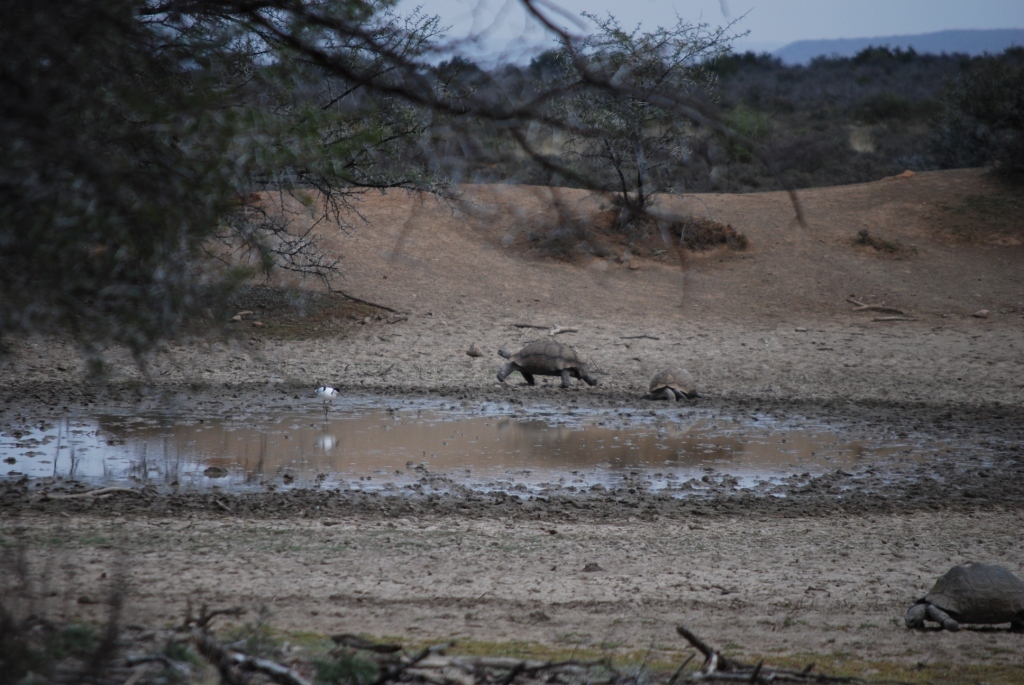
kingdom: Animalia
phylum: Chordata
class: Aves
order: Charadriiformes
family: Recurvirostridae
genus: Recurvirostra
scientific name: Recurvirostra avosetta
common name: Pied avocet
